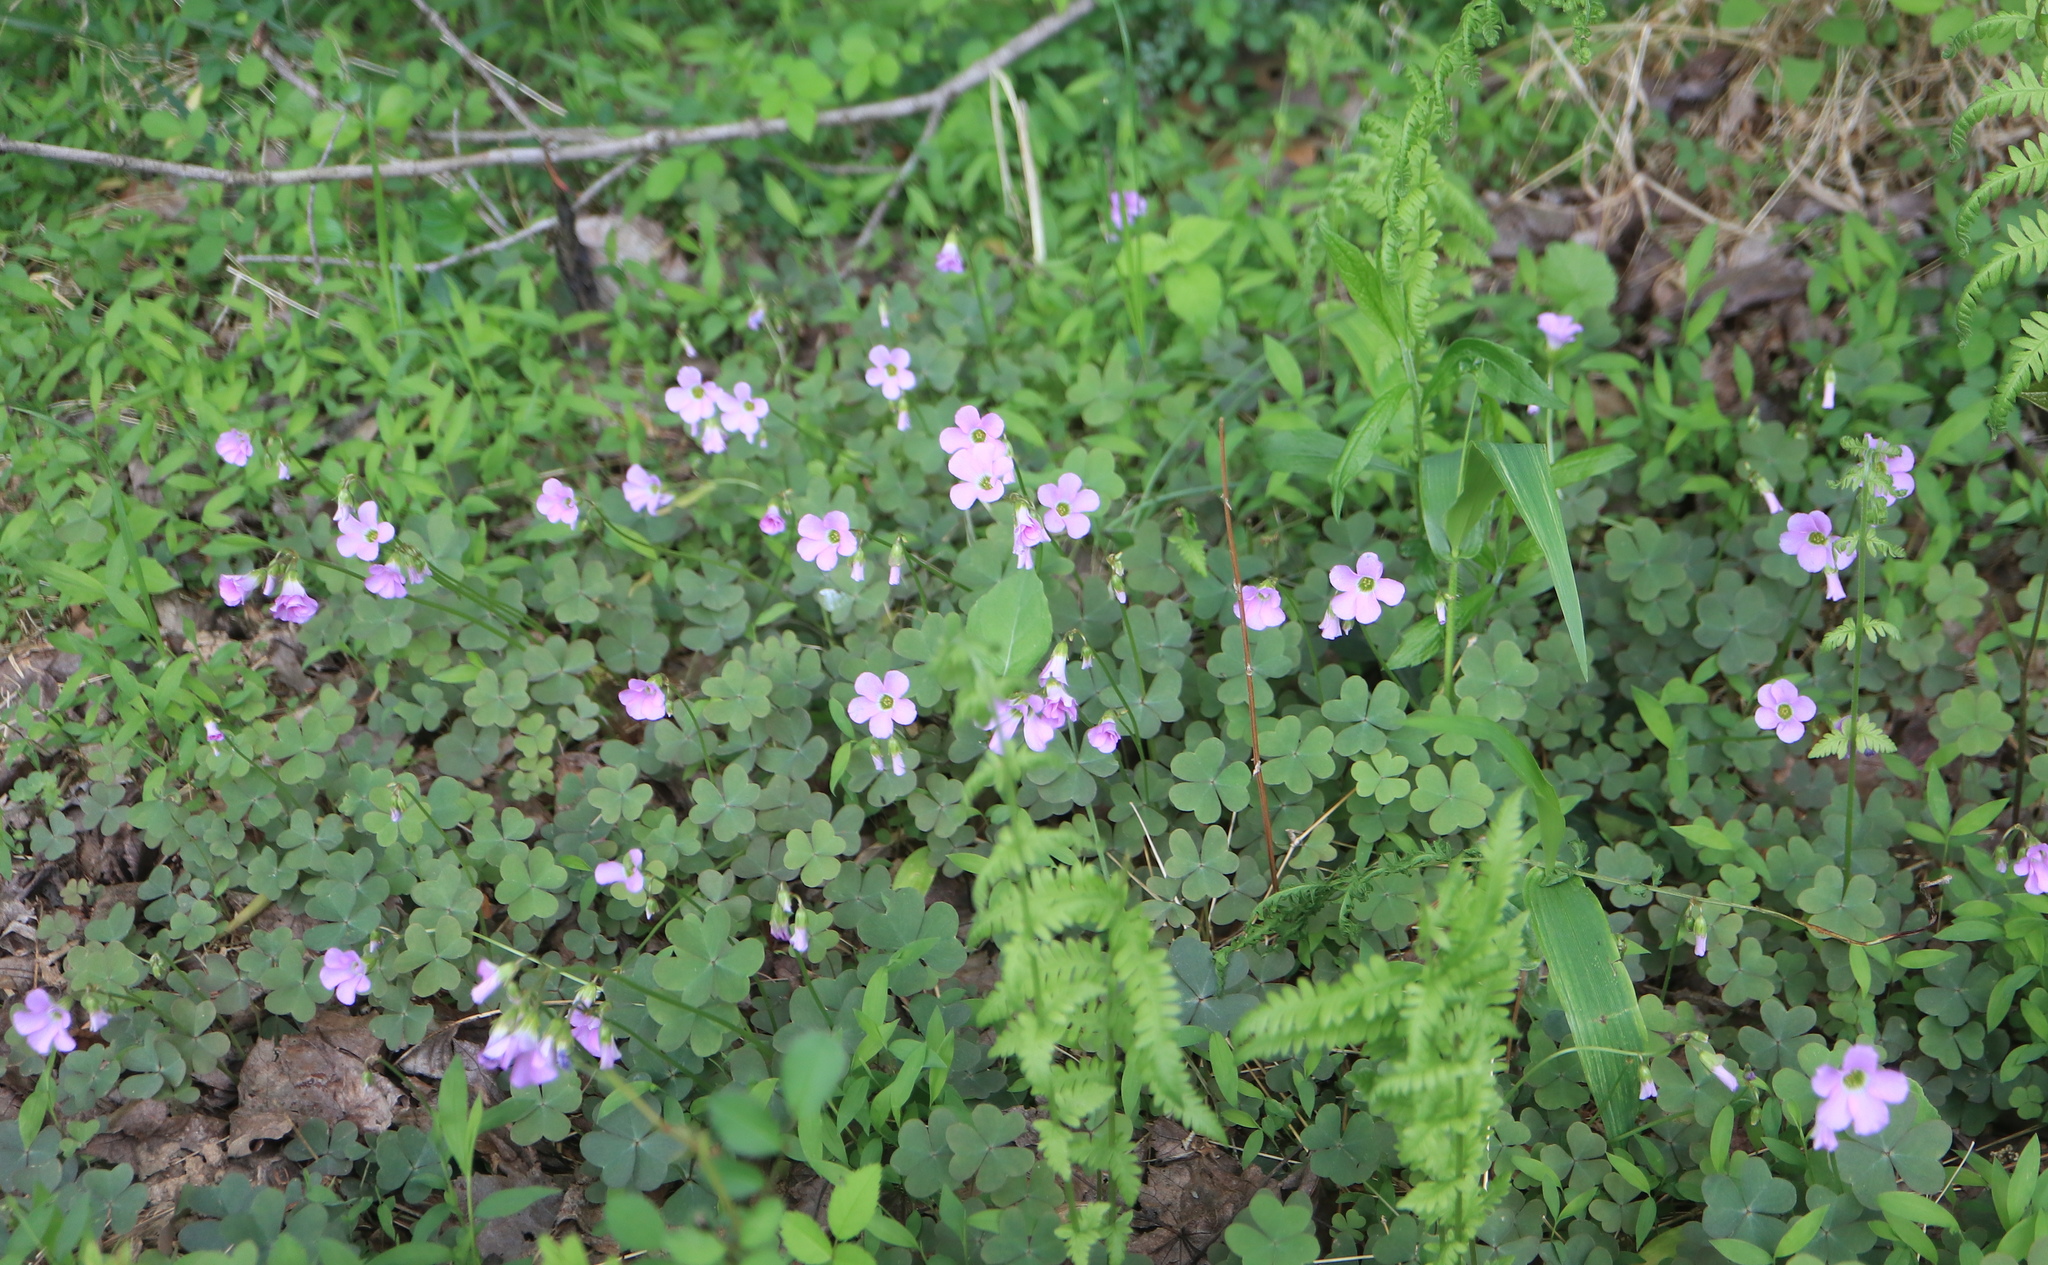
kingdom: Plantae
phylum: Tracheophyta
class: Magnoliopsida
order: Oxalidales
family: Oxalidaceae
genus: Oxalis
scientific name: Oxalis violacea
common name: Violet wood-sorrel
